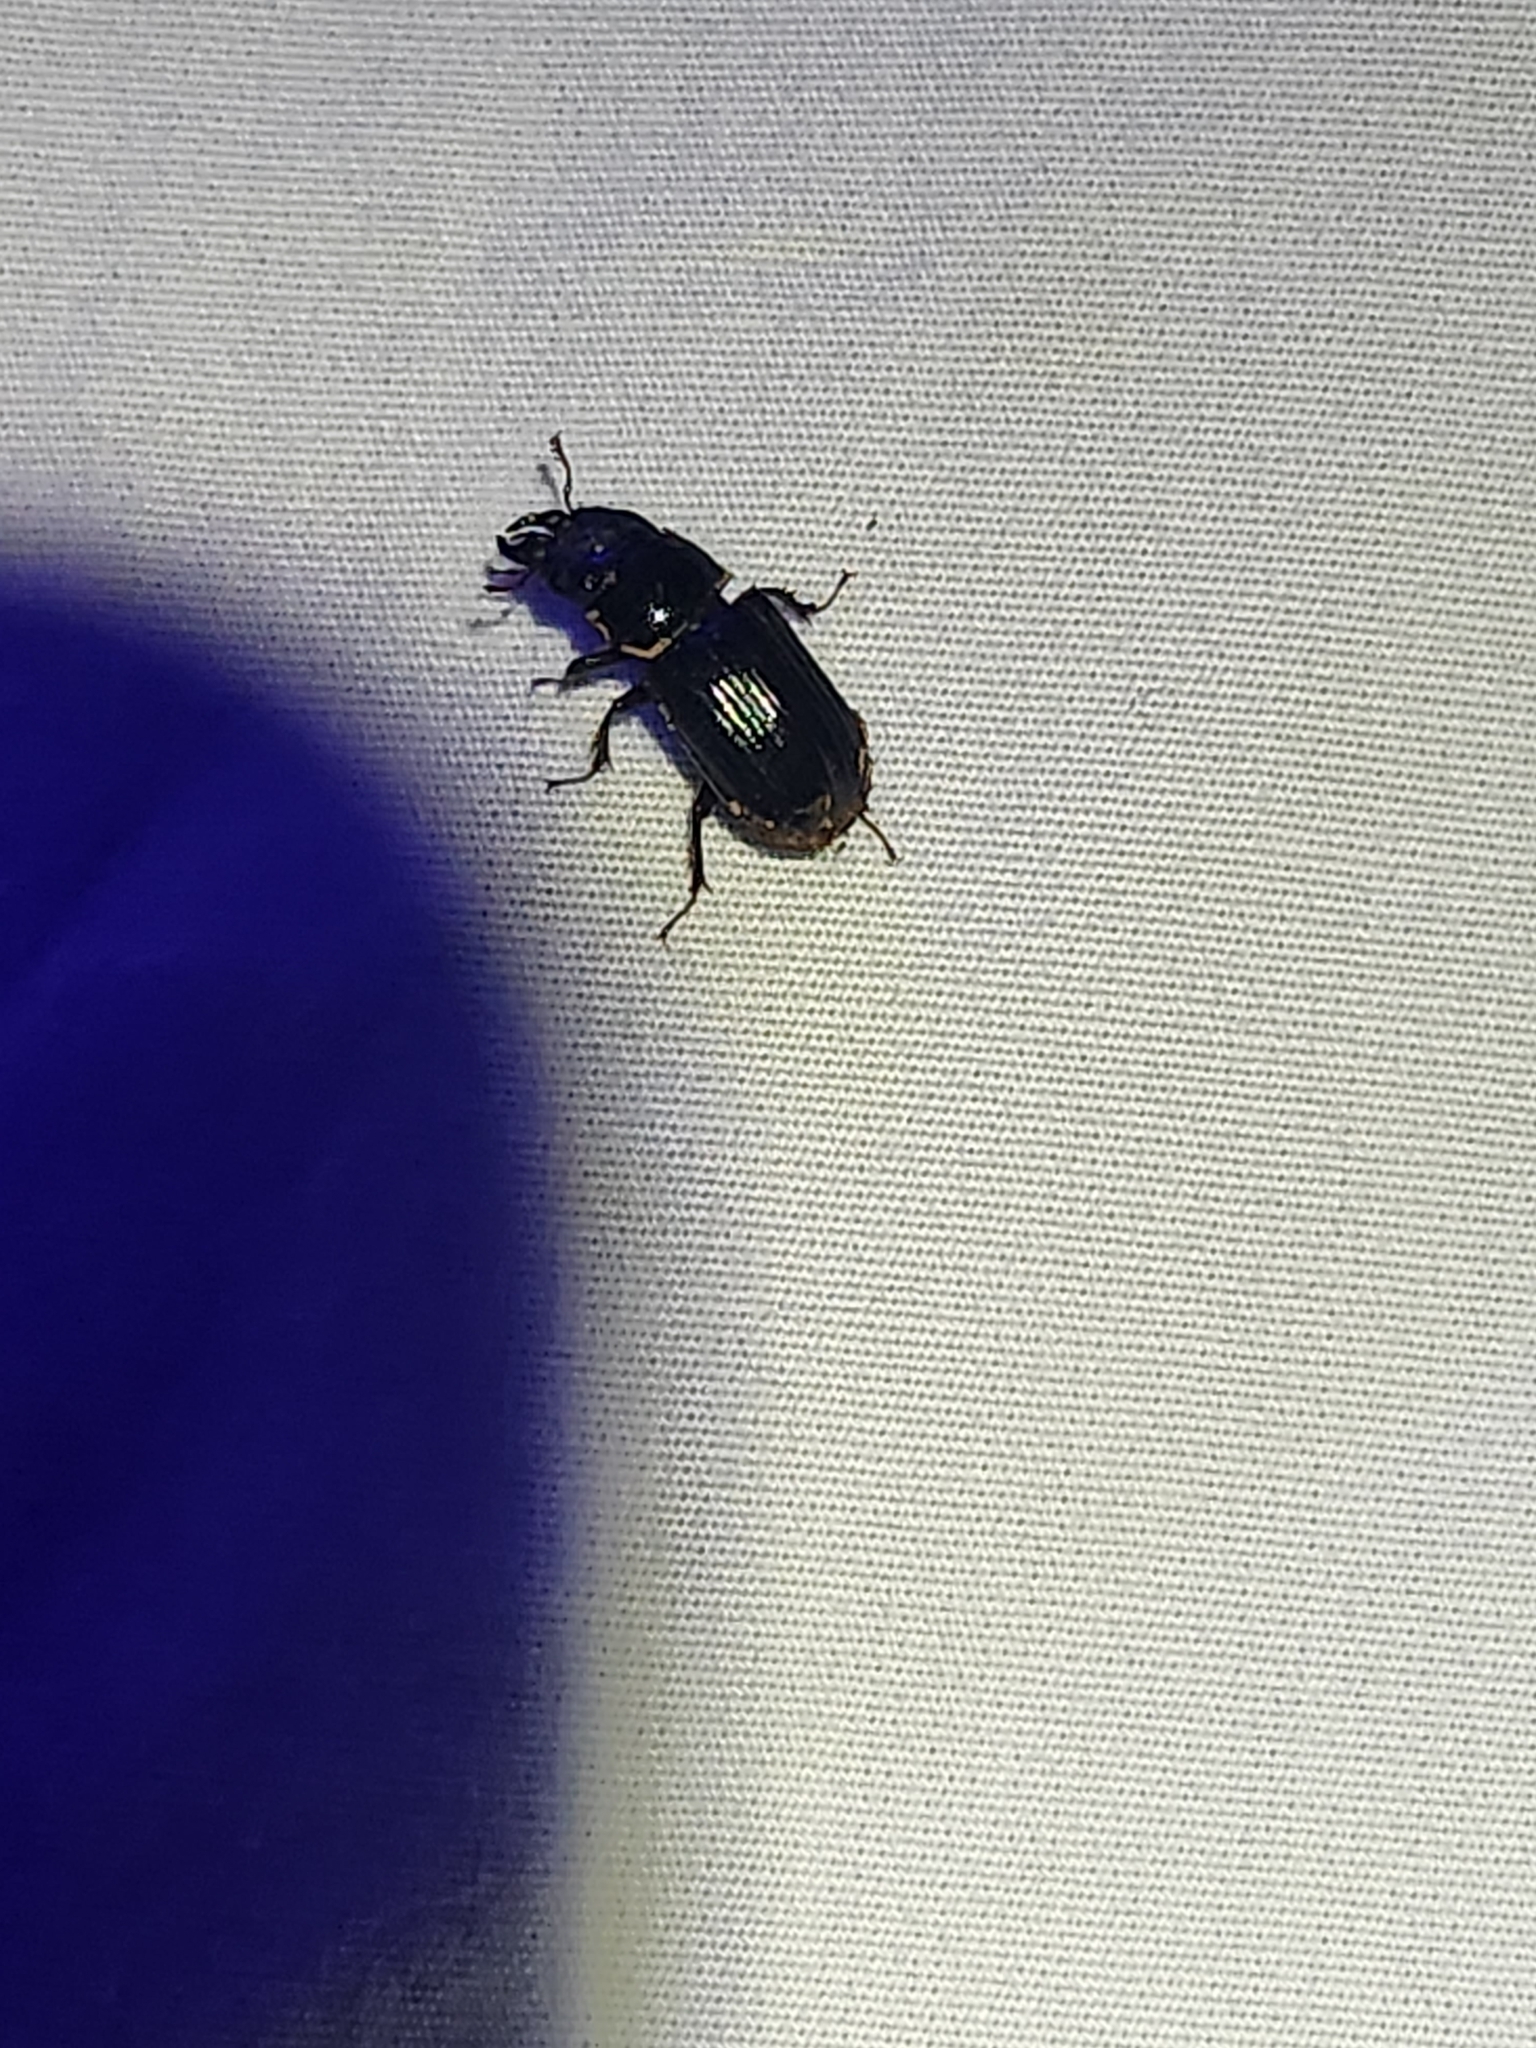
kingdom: Animalia
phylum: Arthropoda
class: Insecta
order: Coleoptera
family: Lucanidae
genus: Ceruchus
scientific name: Ceruchus piceus
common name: Red-rot decay stag beetle
